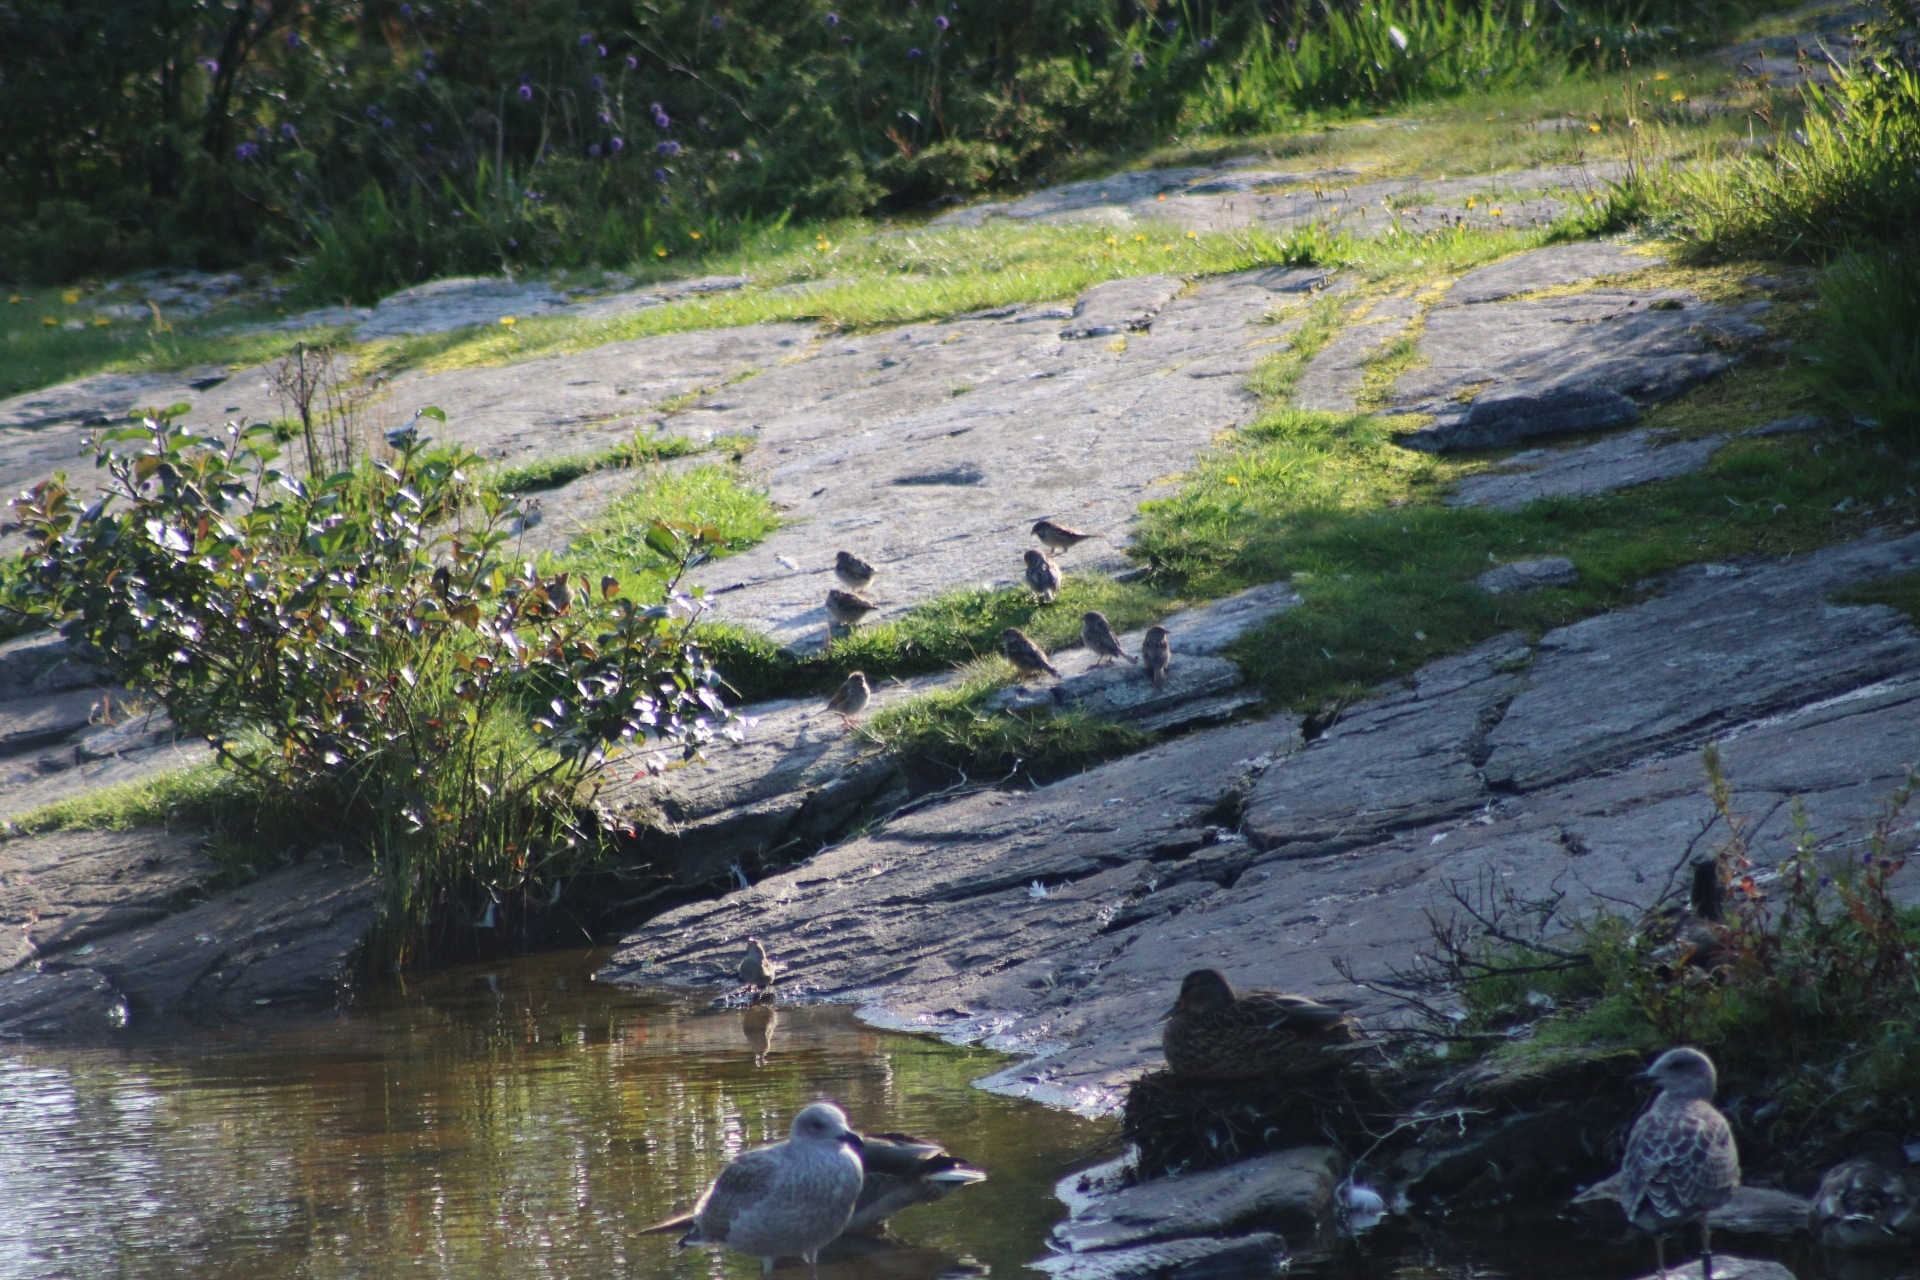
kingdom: Animalia
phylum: Chordata
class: Aves
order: Passeriformes
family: Passeridae
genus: Passer
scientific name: Passer domesticus
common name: House sparrow
